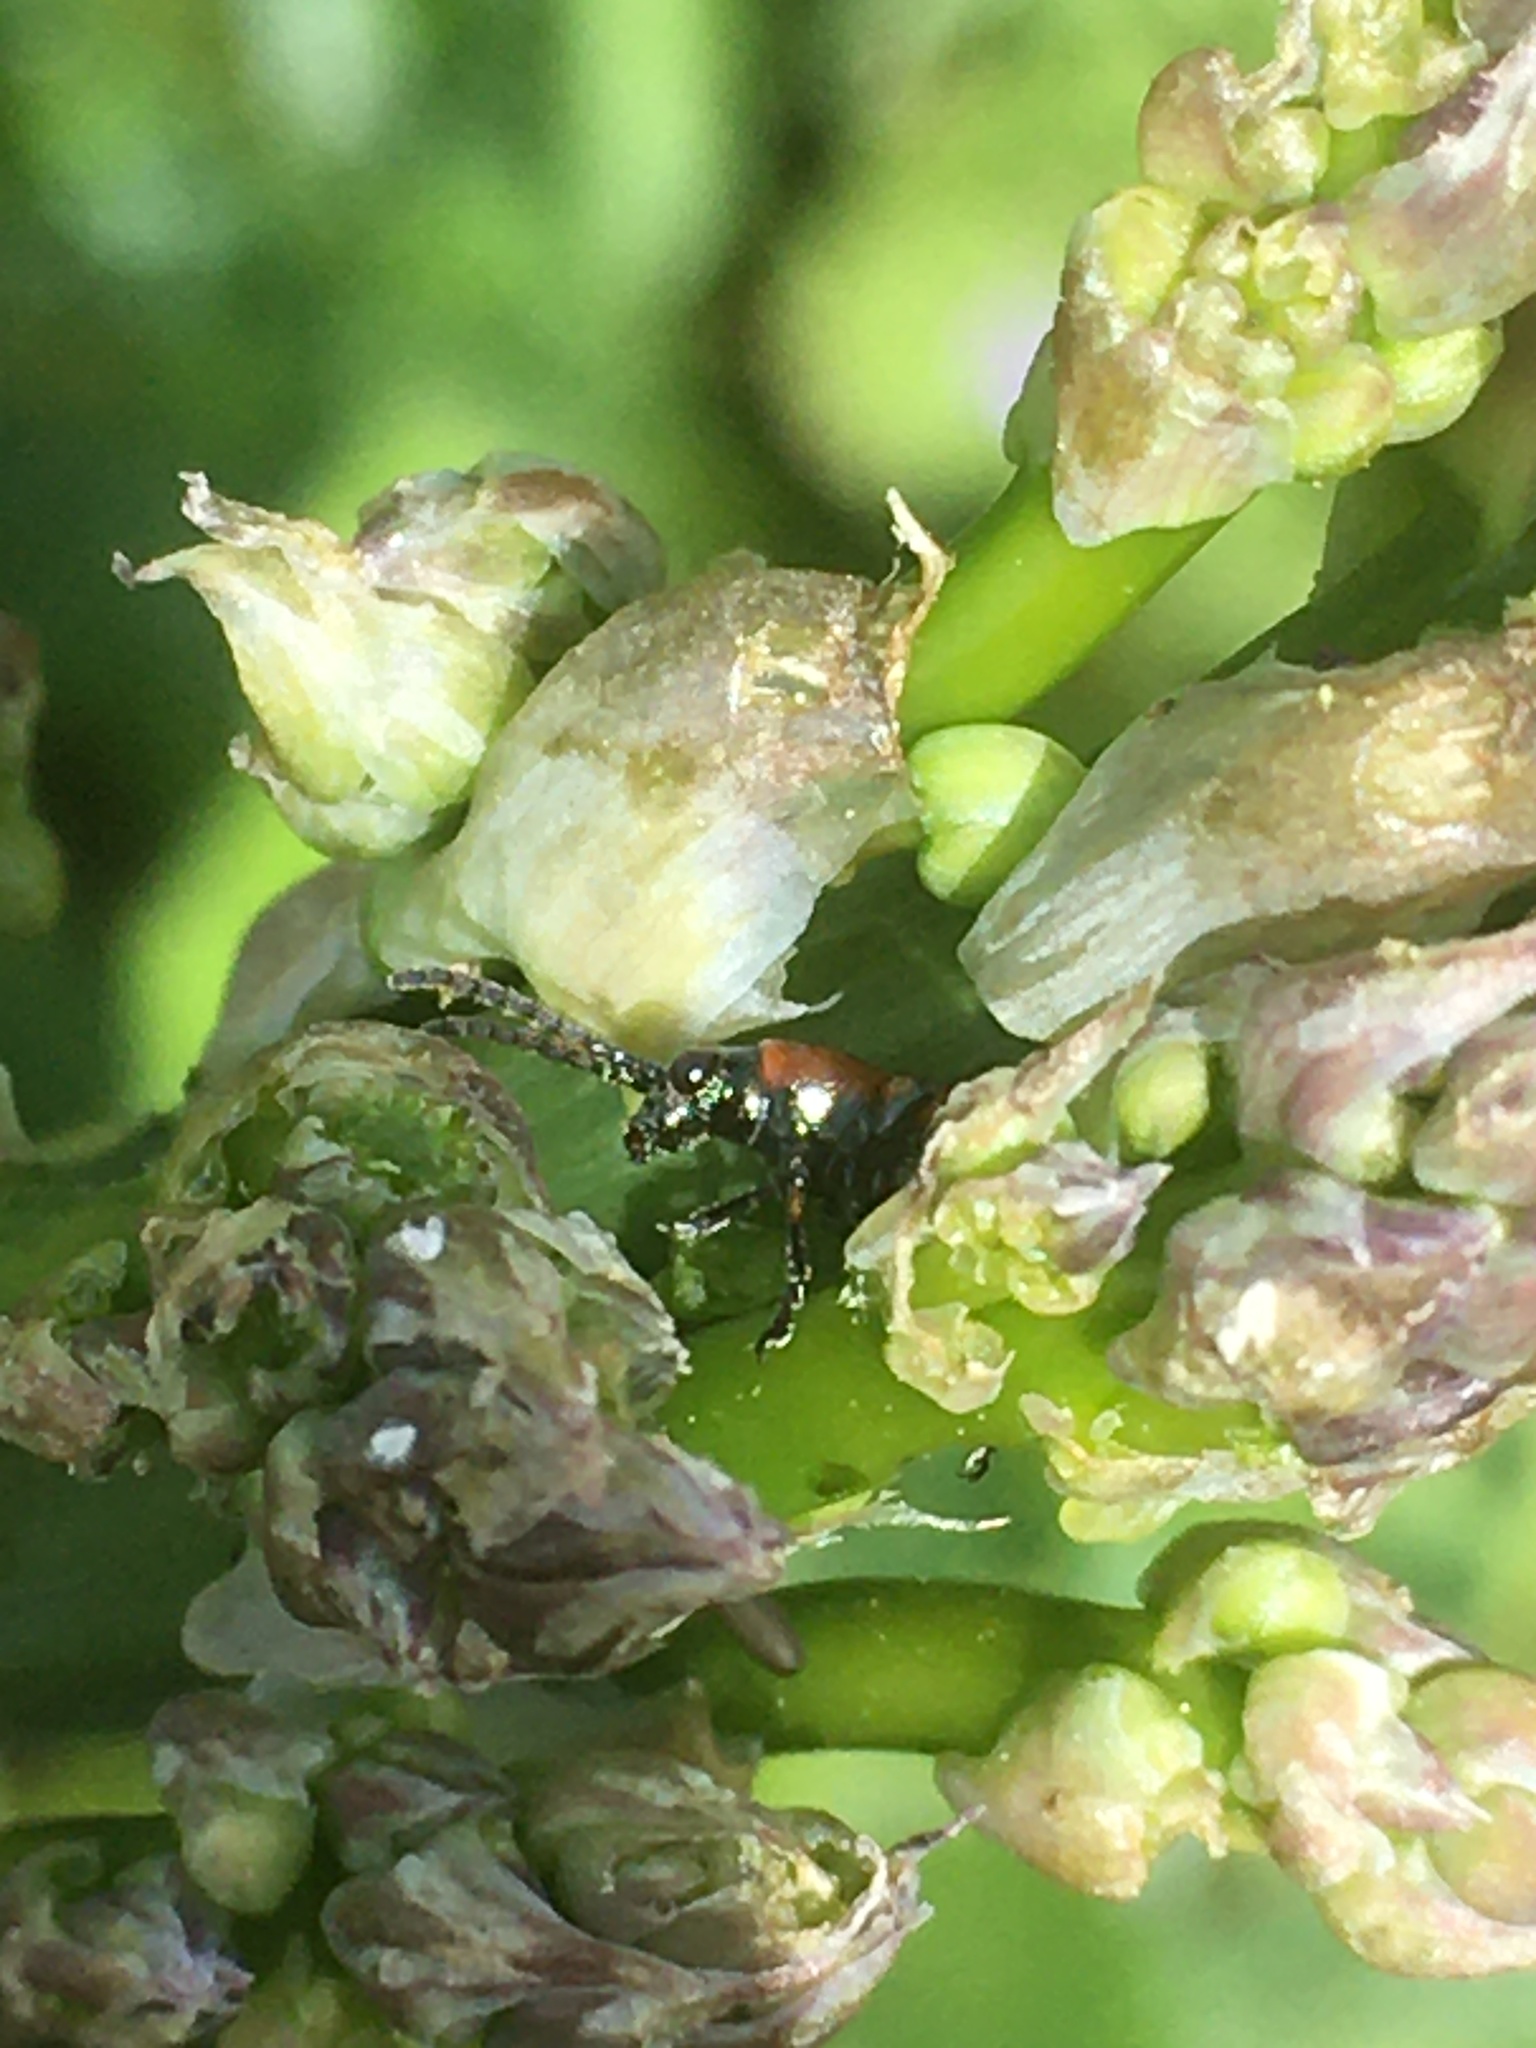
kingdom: Animalia
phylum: Arthropoda
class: Insecta
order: Coleoptera
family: Chrysomelidae
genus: Crioceris
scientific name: Crioceris asparagi
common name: Asparagus beetle
